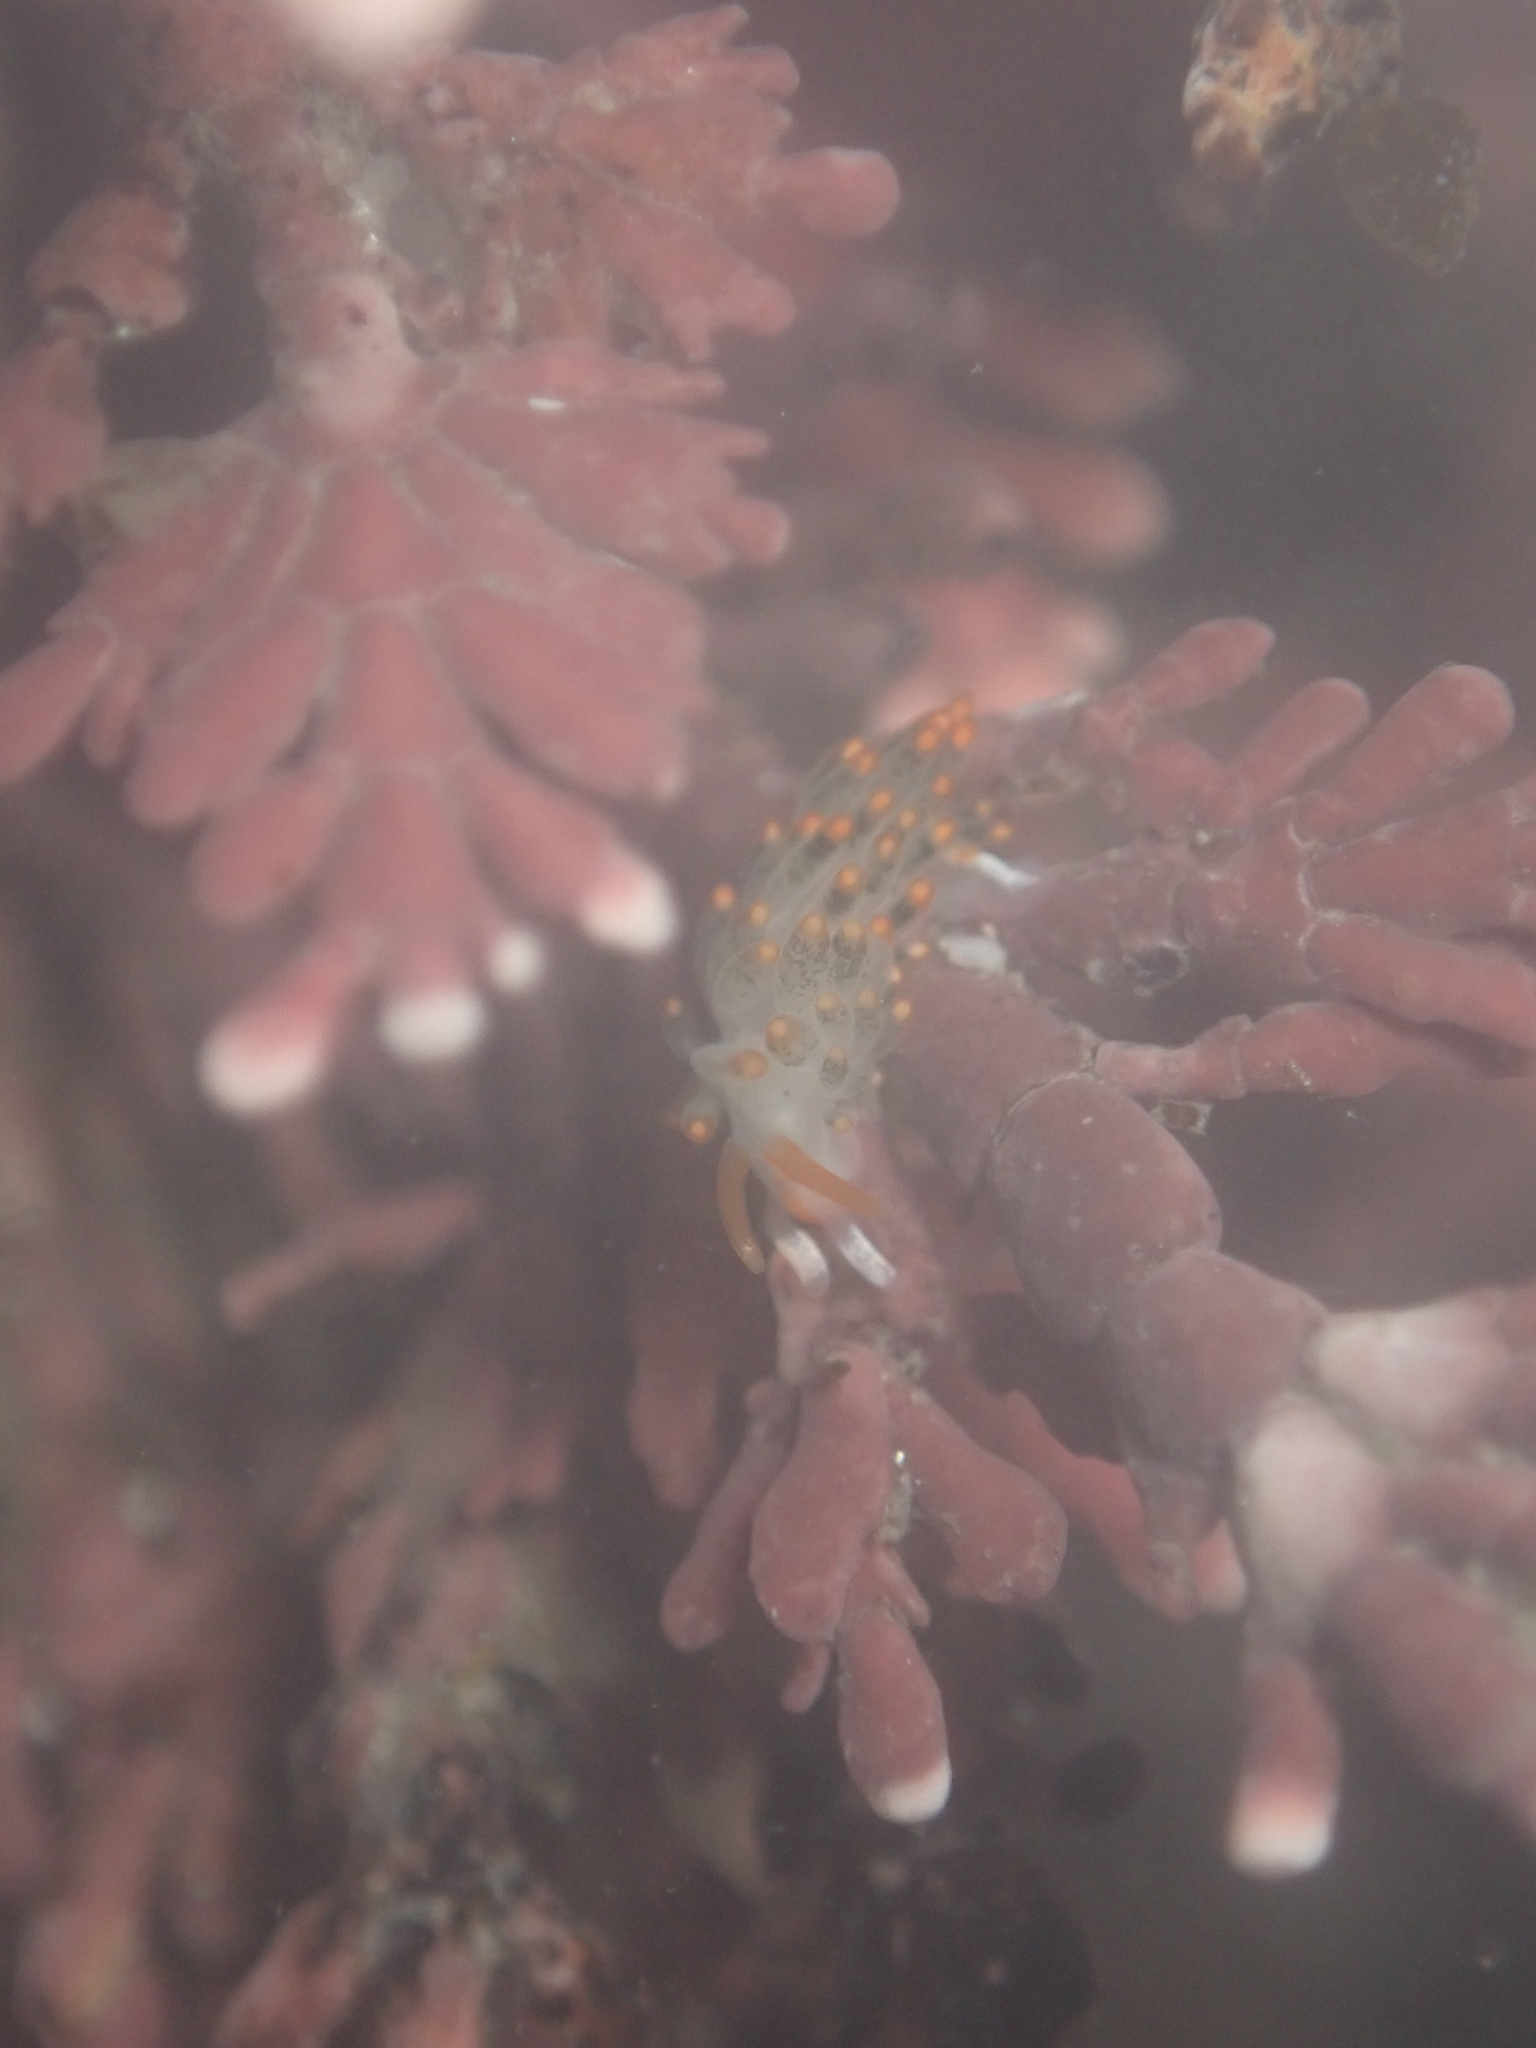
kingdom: Animalia
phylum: Mollusca
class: Gastropoda
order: Nudibranchia
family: Trinchesiidae
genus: Diaphoreolis
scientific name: Diaphoreolis lagunae
